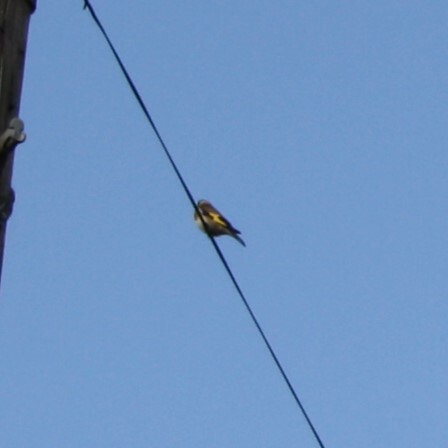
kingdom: Animalia
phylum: Chordata
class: Aves
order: Passeriformes
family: Fringillidae
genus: Carduelis
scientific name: Carduelis carduelis
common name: European goldfinch
